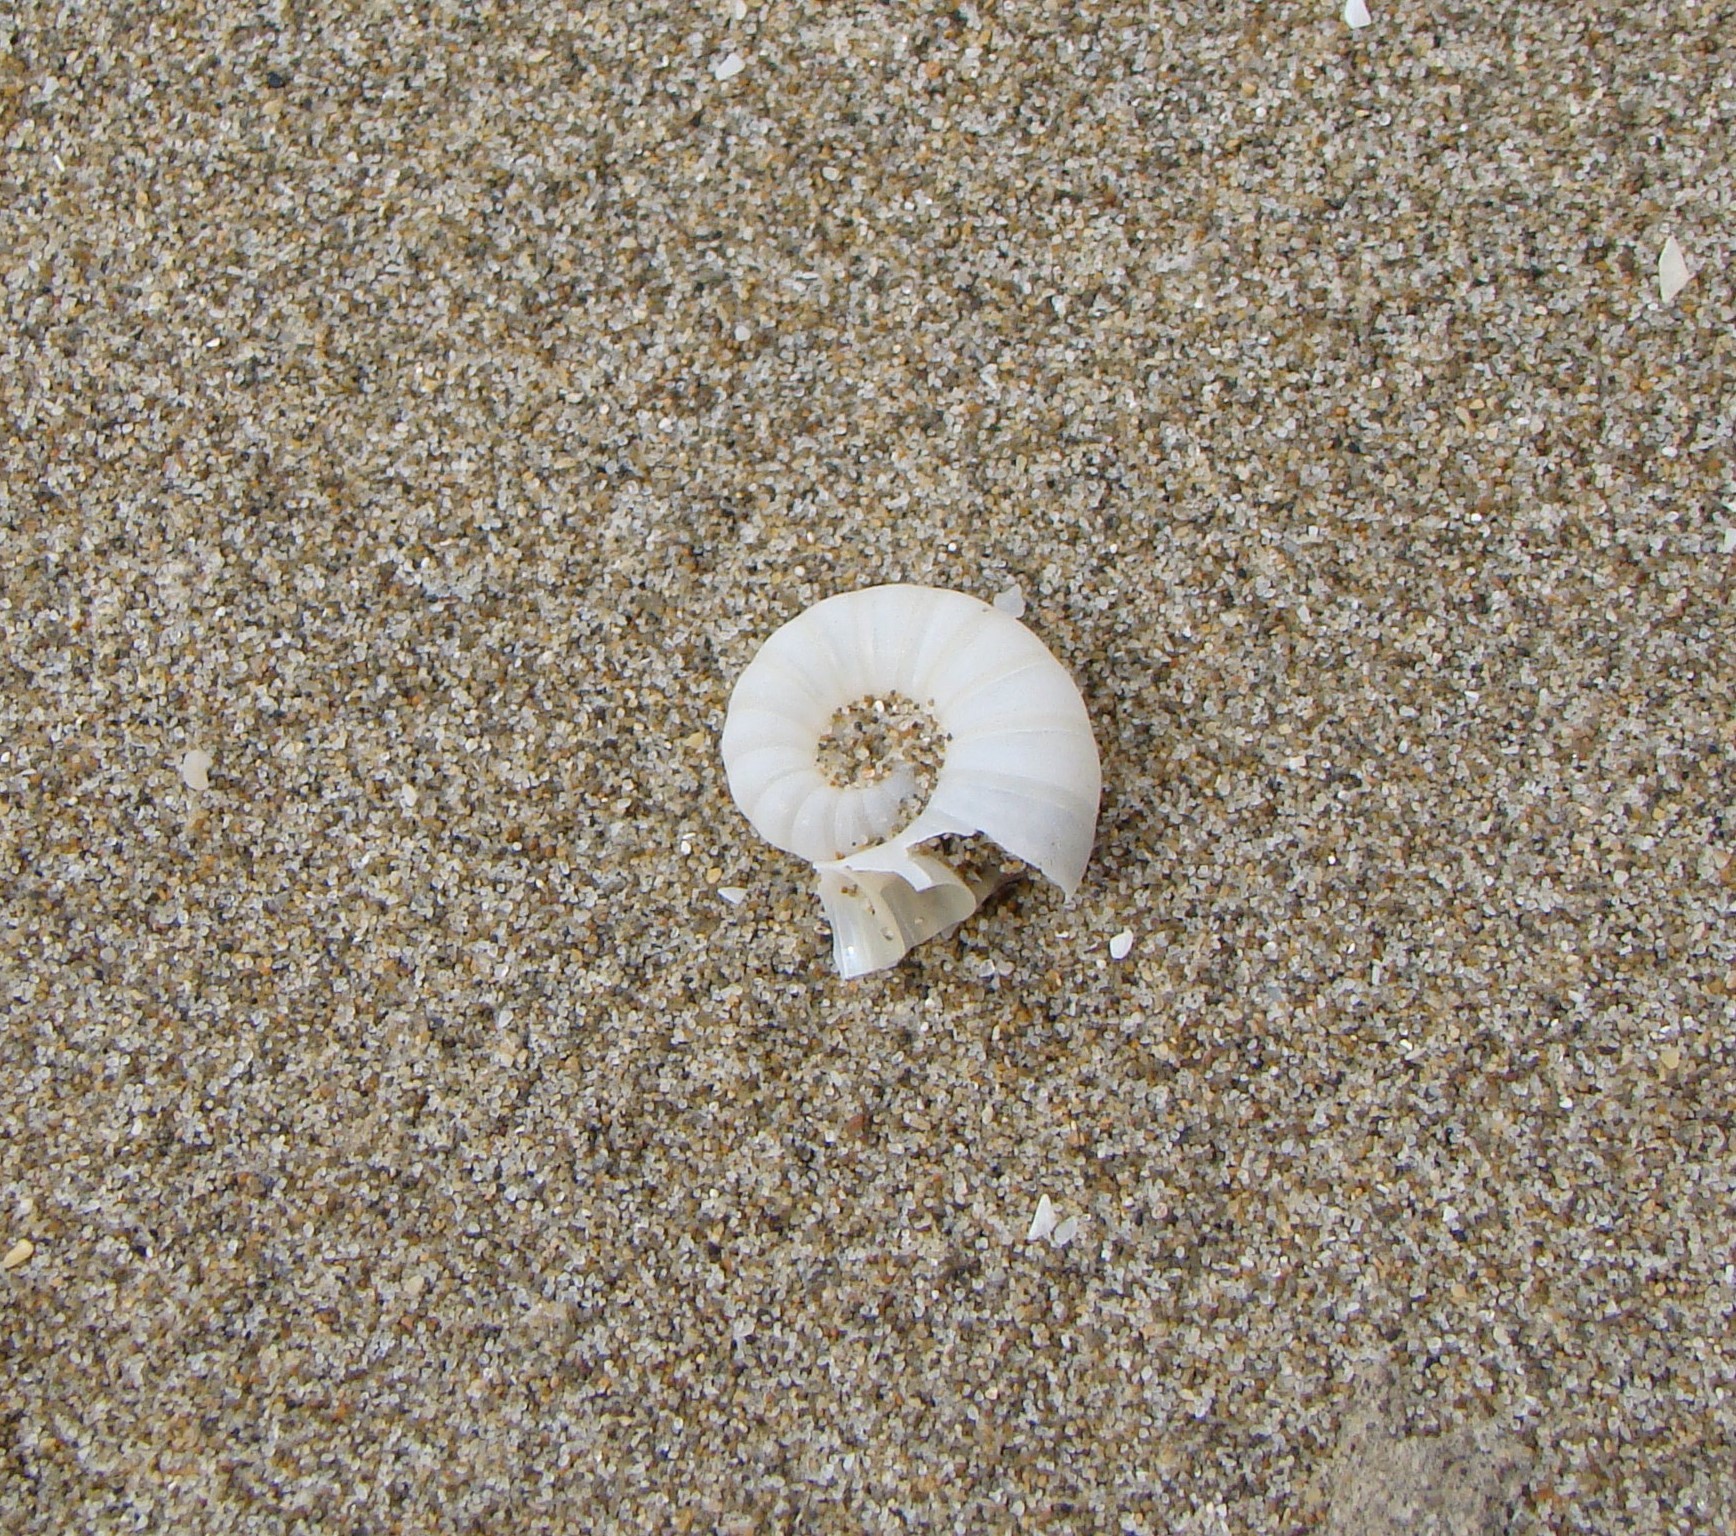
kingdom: Animalia
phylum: Mollusca
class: Cephalopoda
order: Spirulida
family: Spirulidae
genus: Spirula
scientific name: Spirula spirula
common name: Ram's horn squid
